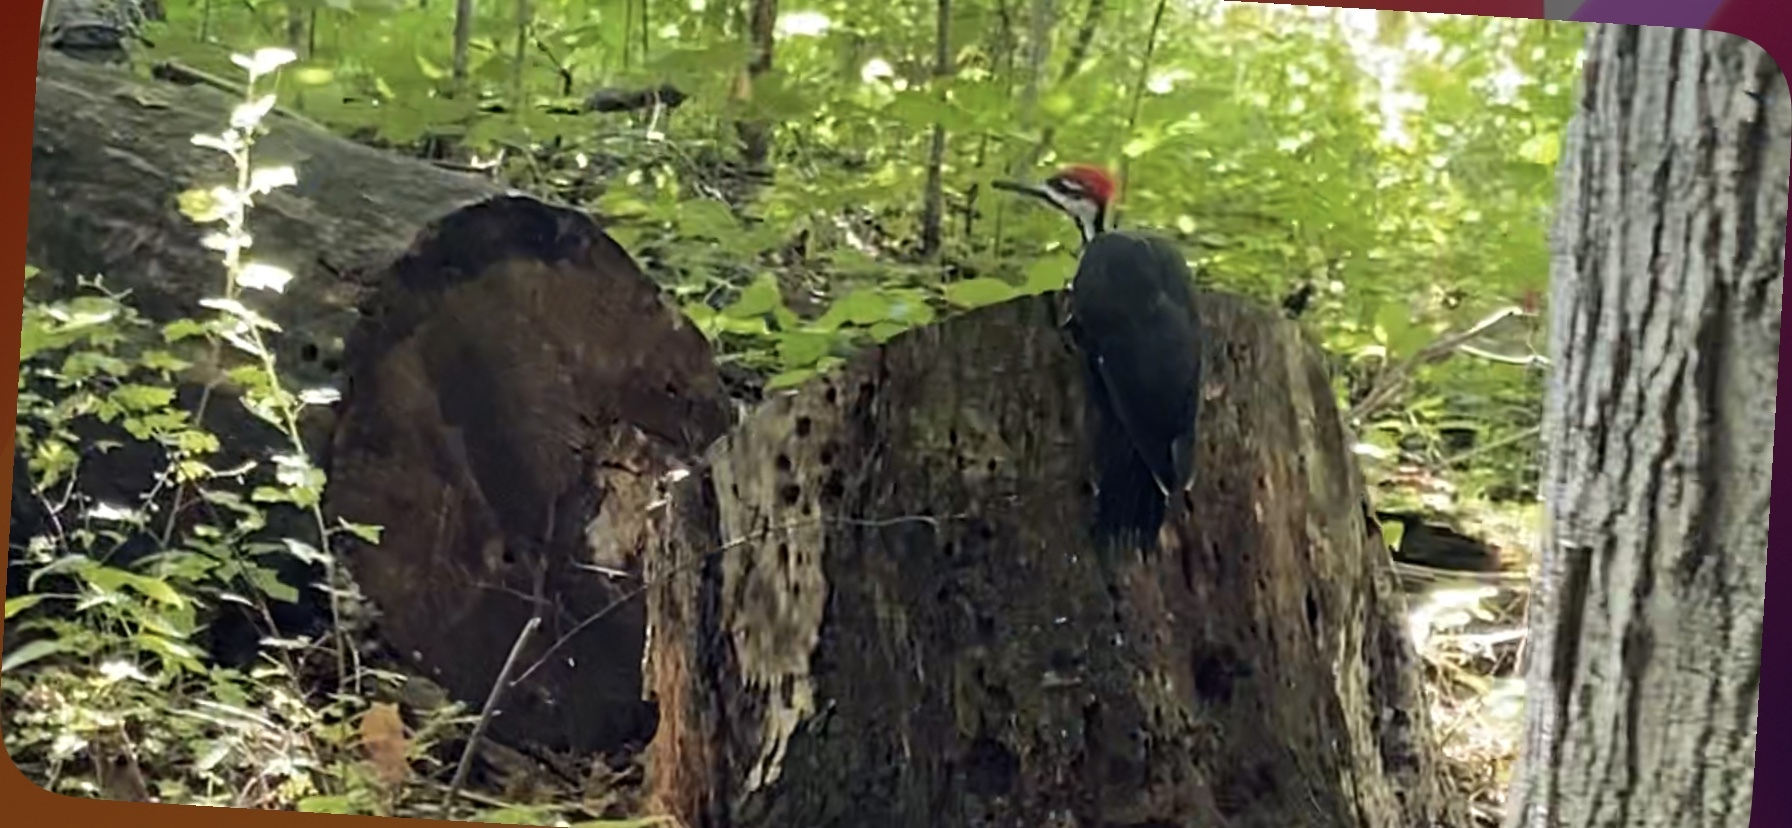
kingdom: Animalia
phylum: Chordata
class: Aves
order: Piciformes
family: Picidae
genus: Dryocopus
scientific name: Dryocopus pileatus
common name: Pileated woodpecker
